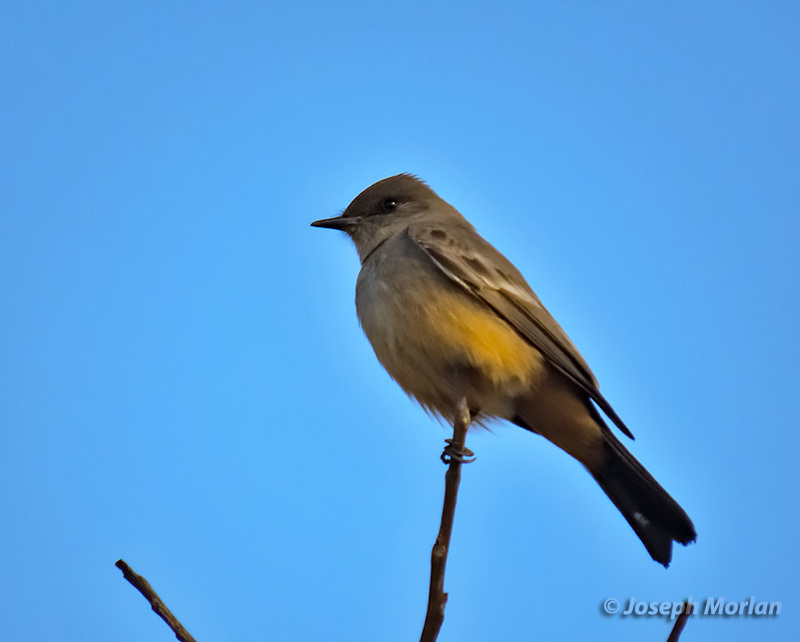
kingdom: Animalia
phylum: Chordata
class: Aves
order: Passeriformes
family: Tyrannidae
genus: Sayornis
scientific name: Sayornis saya
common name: Say's phoebe
